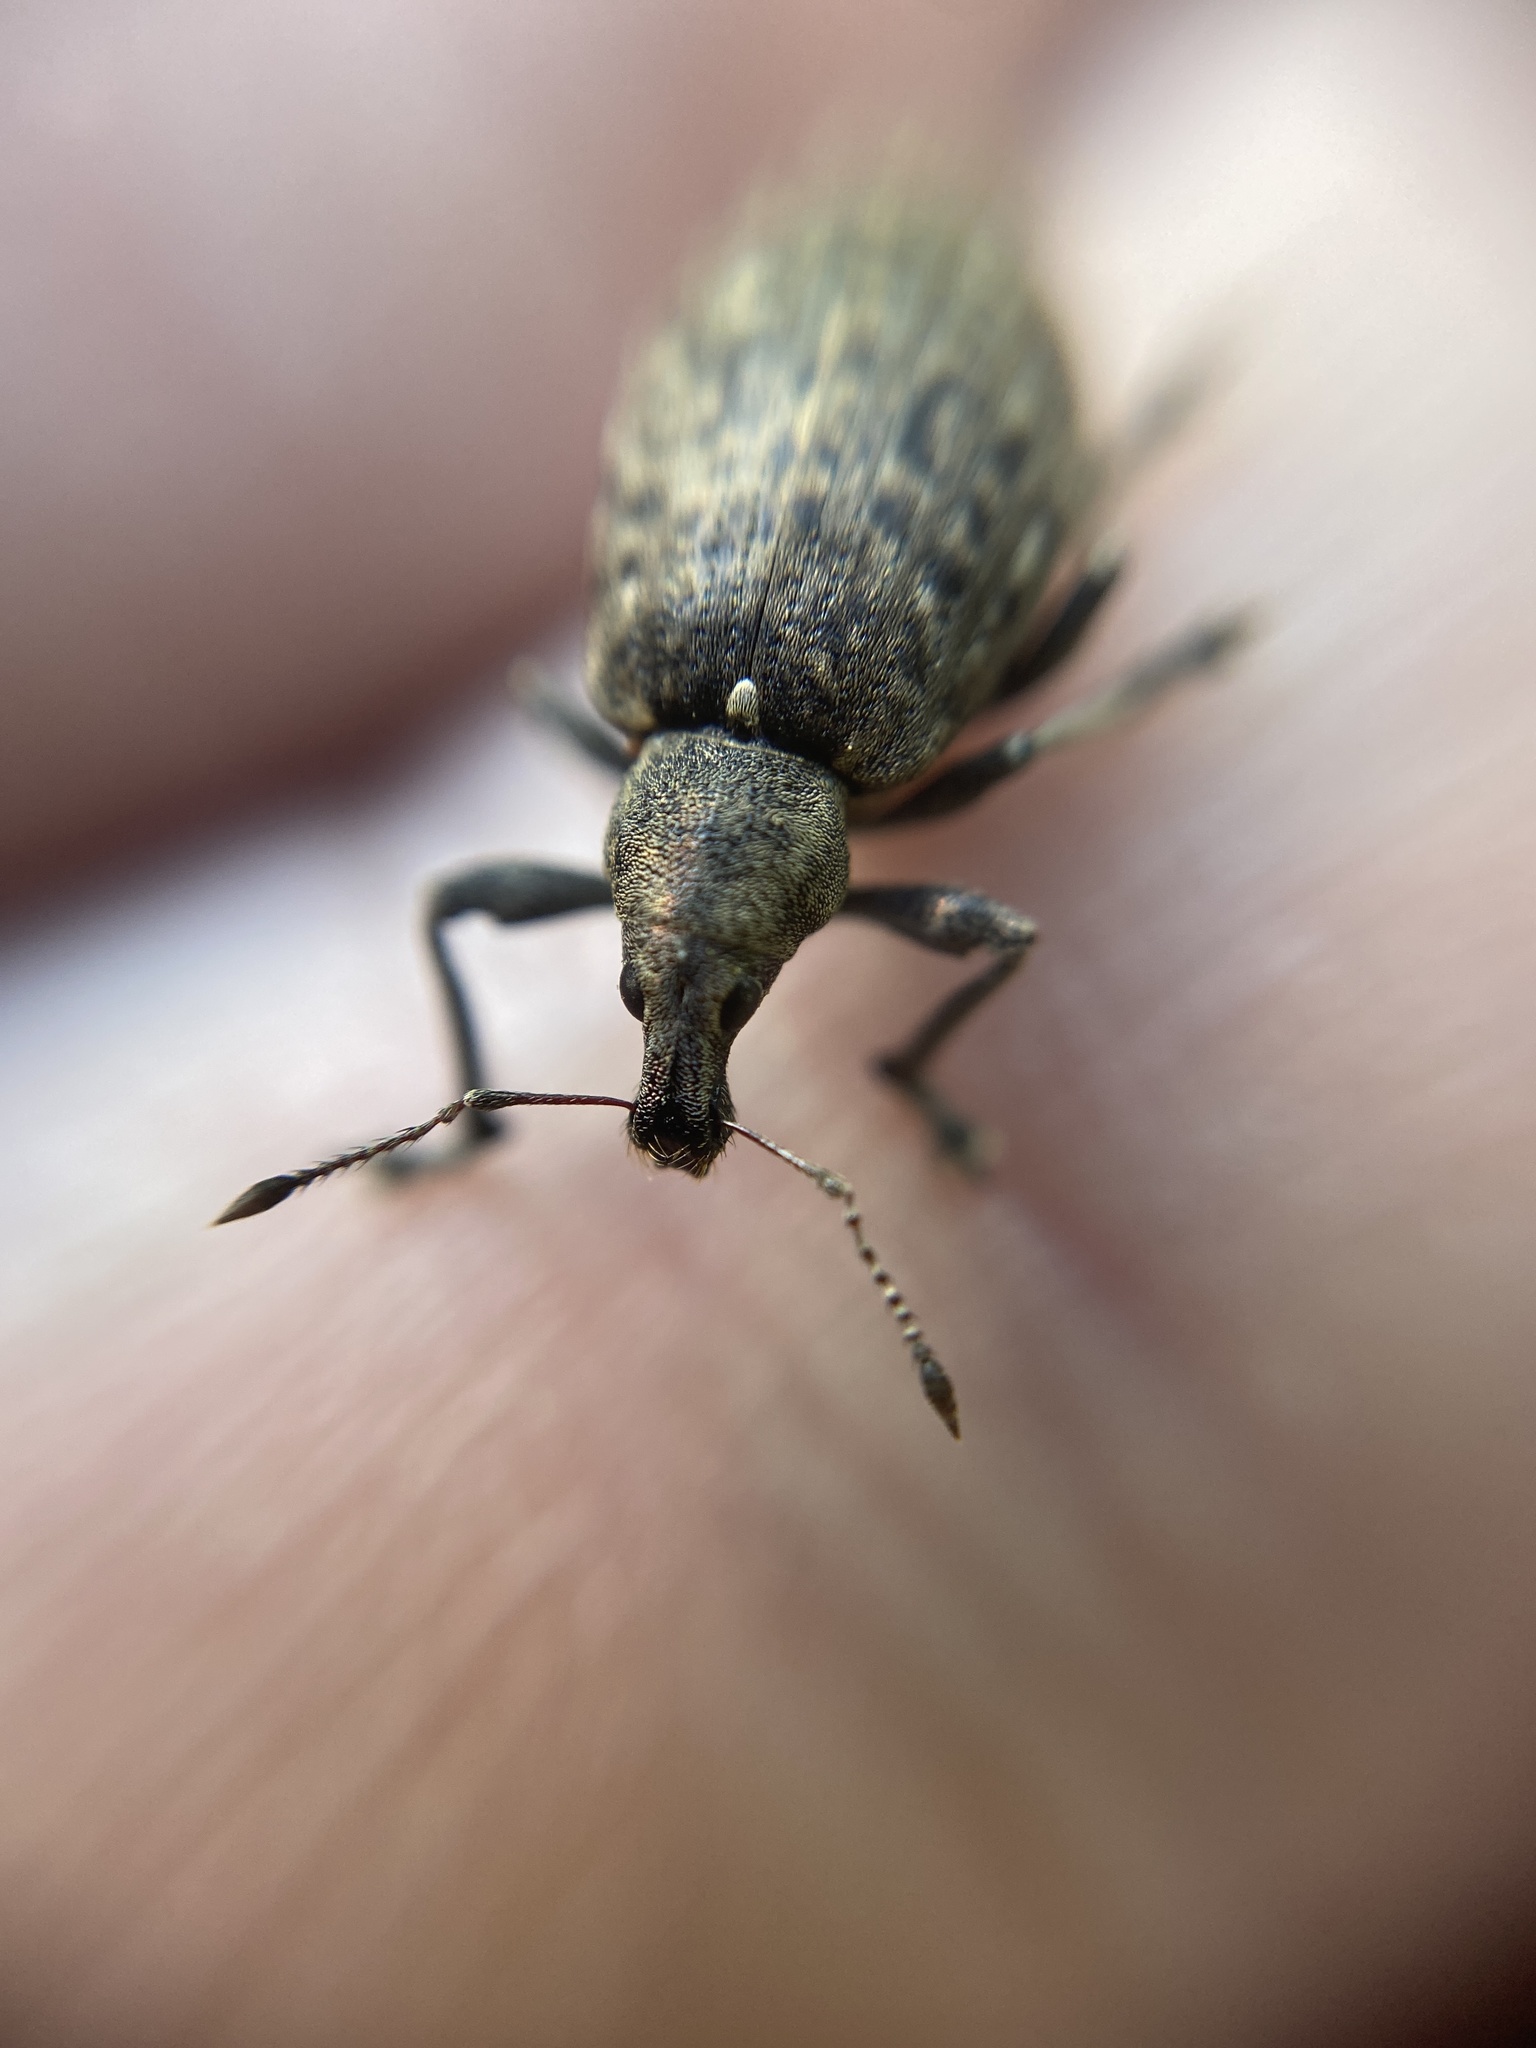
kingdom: Animalia
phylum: Arthropoda
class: Insecta
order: Coleoptera
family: Curculionidae
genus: Liophloeus
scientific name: Liophloeus tessulatus
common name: Weevil
